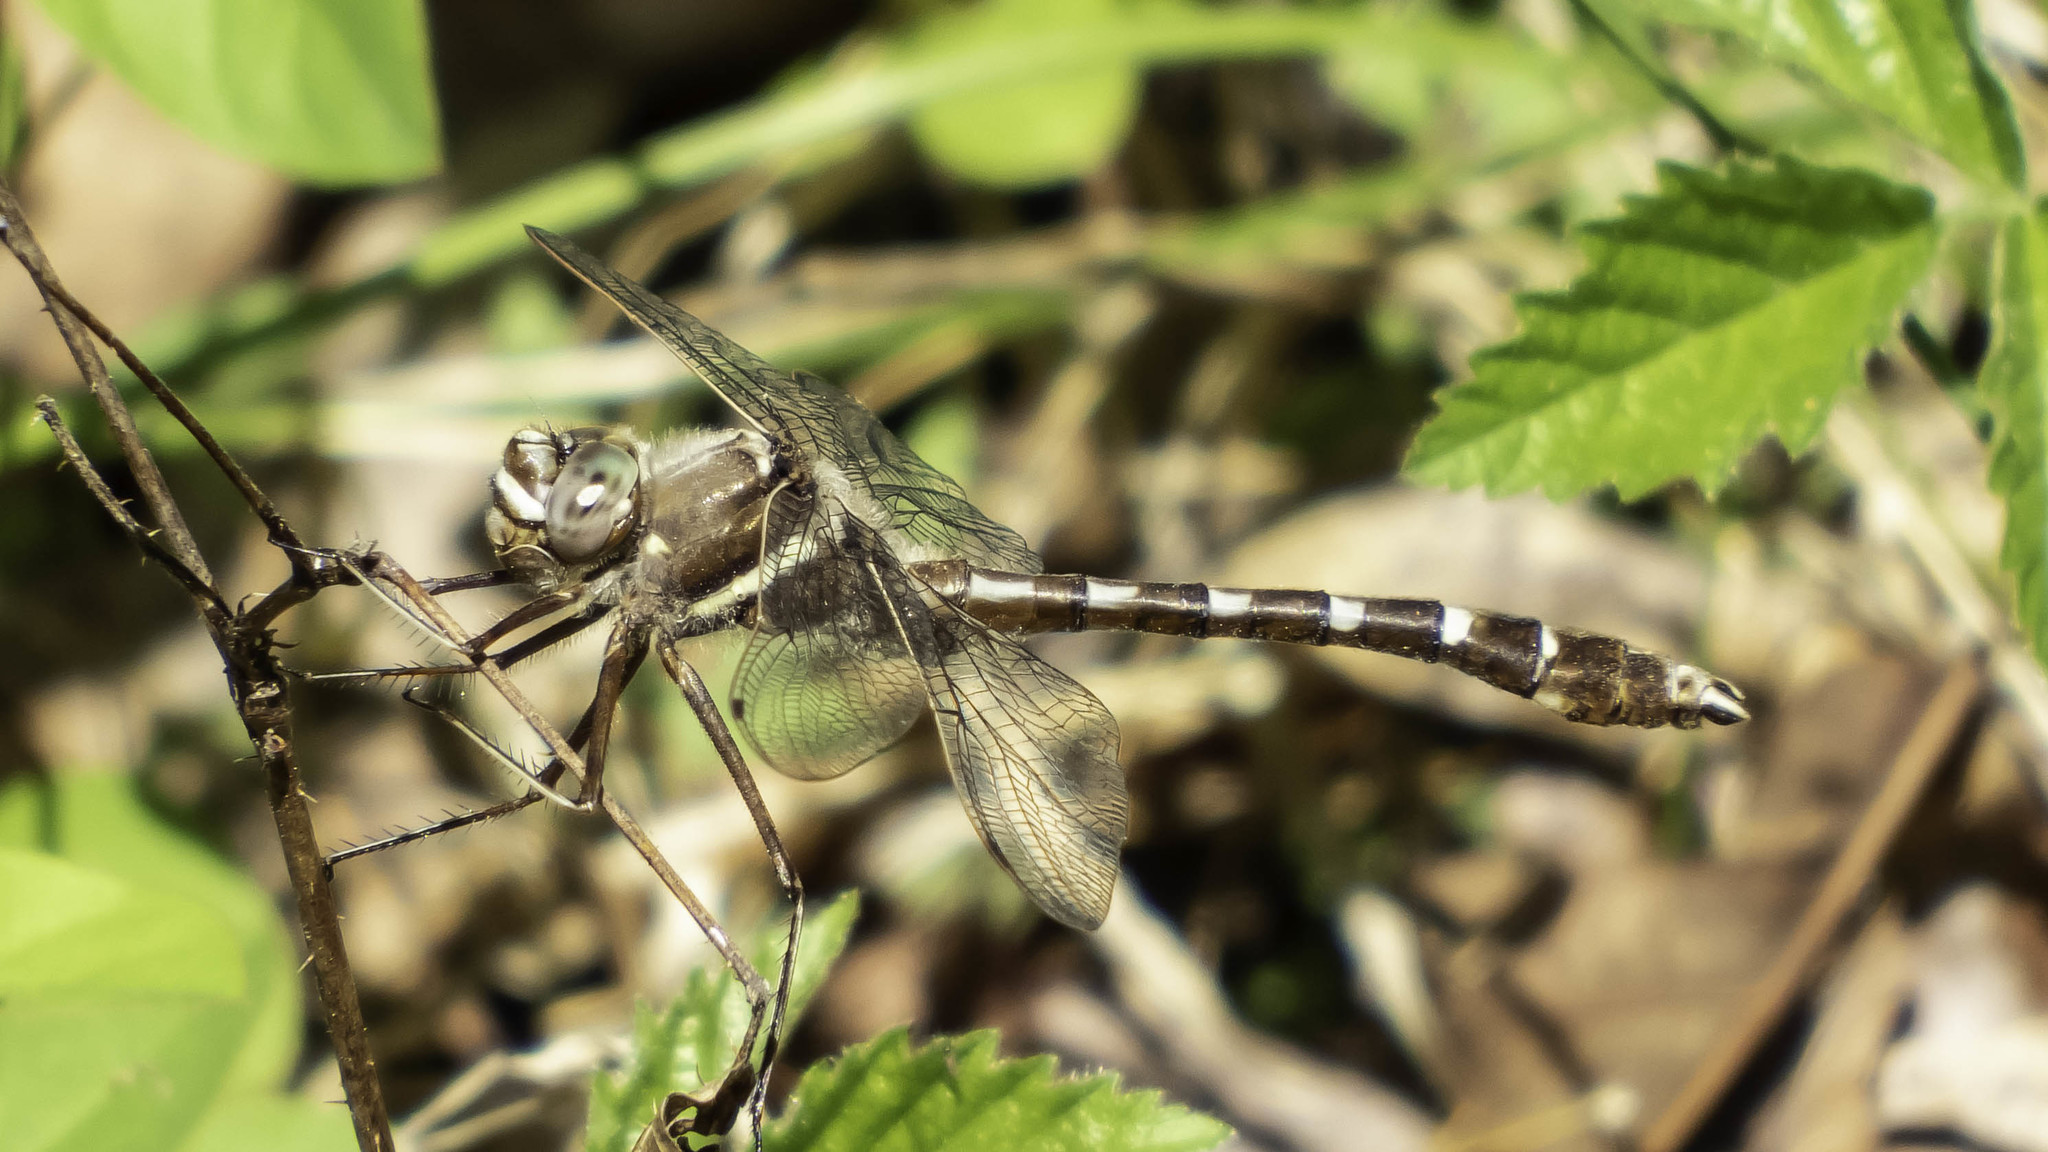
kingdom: Animalia
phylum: Arthropoda
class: Insecta
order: Odonata
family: Macromiidae
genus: Didymops
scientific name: Didymops transversa
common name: Stream cruiser
